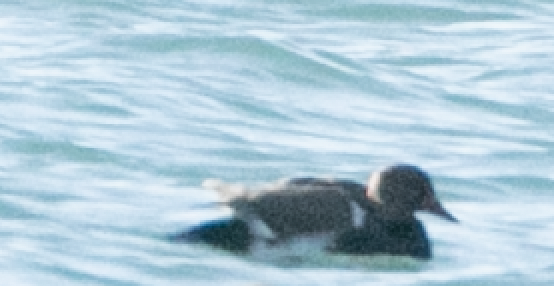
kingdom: Animalia
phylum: Chordata
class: Aves
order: Anseriformes
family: Anatidae
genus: Netta
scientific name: Netta rufina
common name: Red-crested pochard
